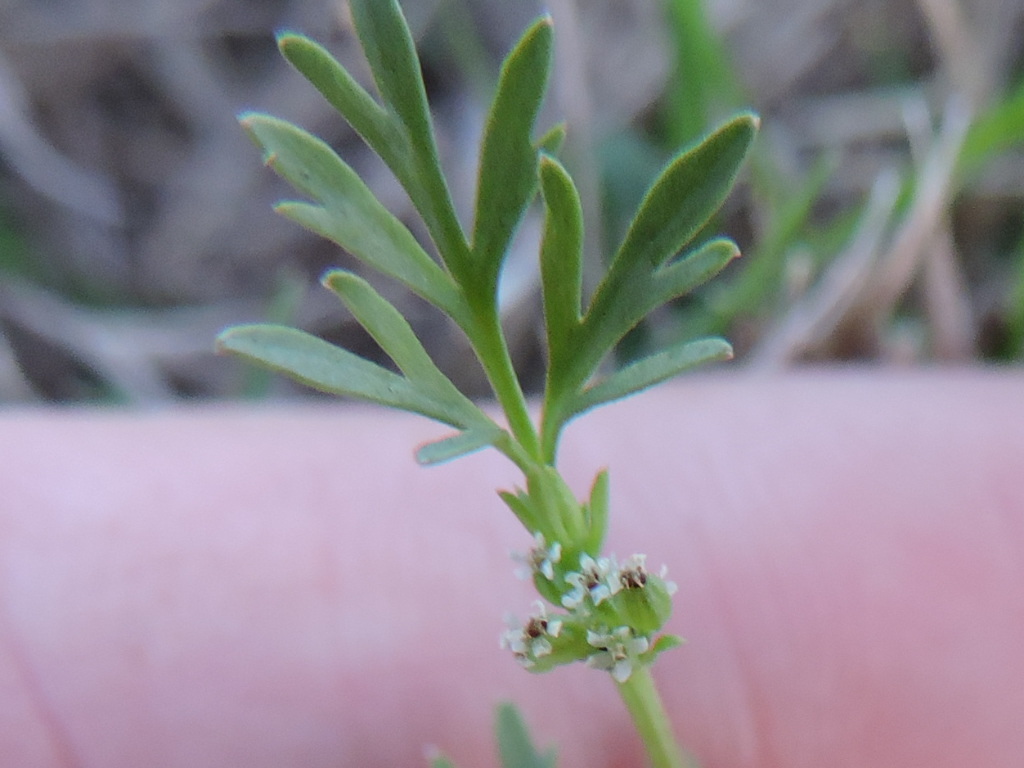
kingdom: Plantae
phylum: Tracheophyta
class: Magnoliopsida
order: Apiales
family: Apiaceae
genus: Ammoselinum
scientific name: Ammoselinum butleri
